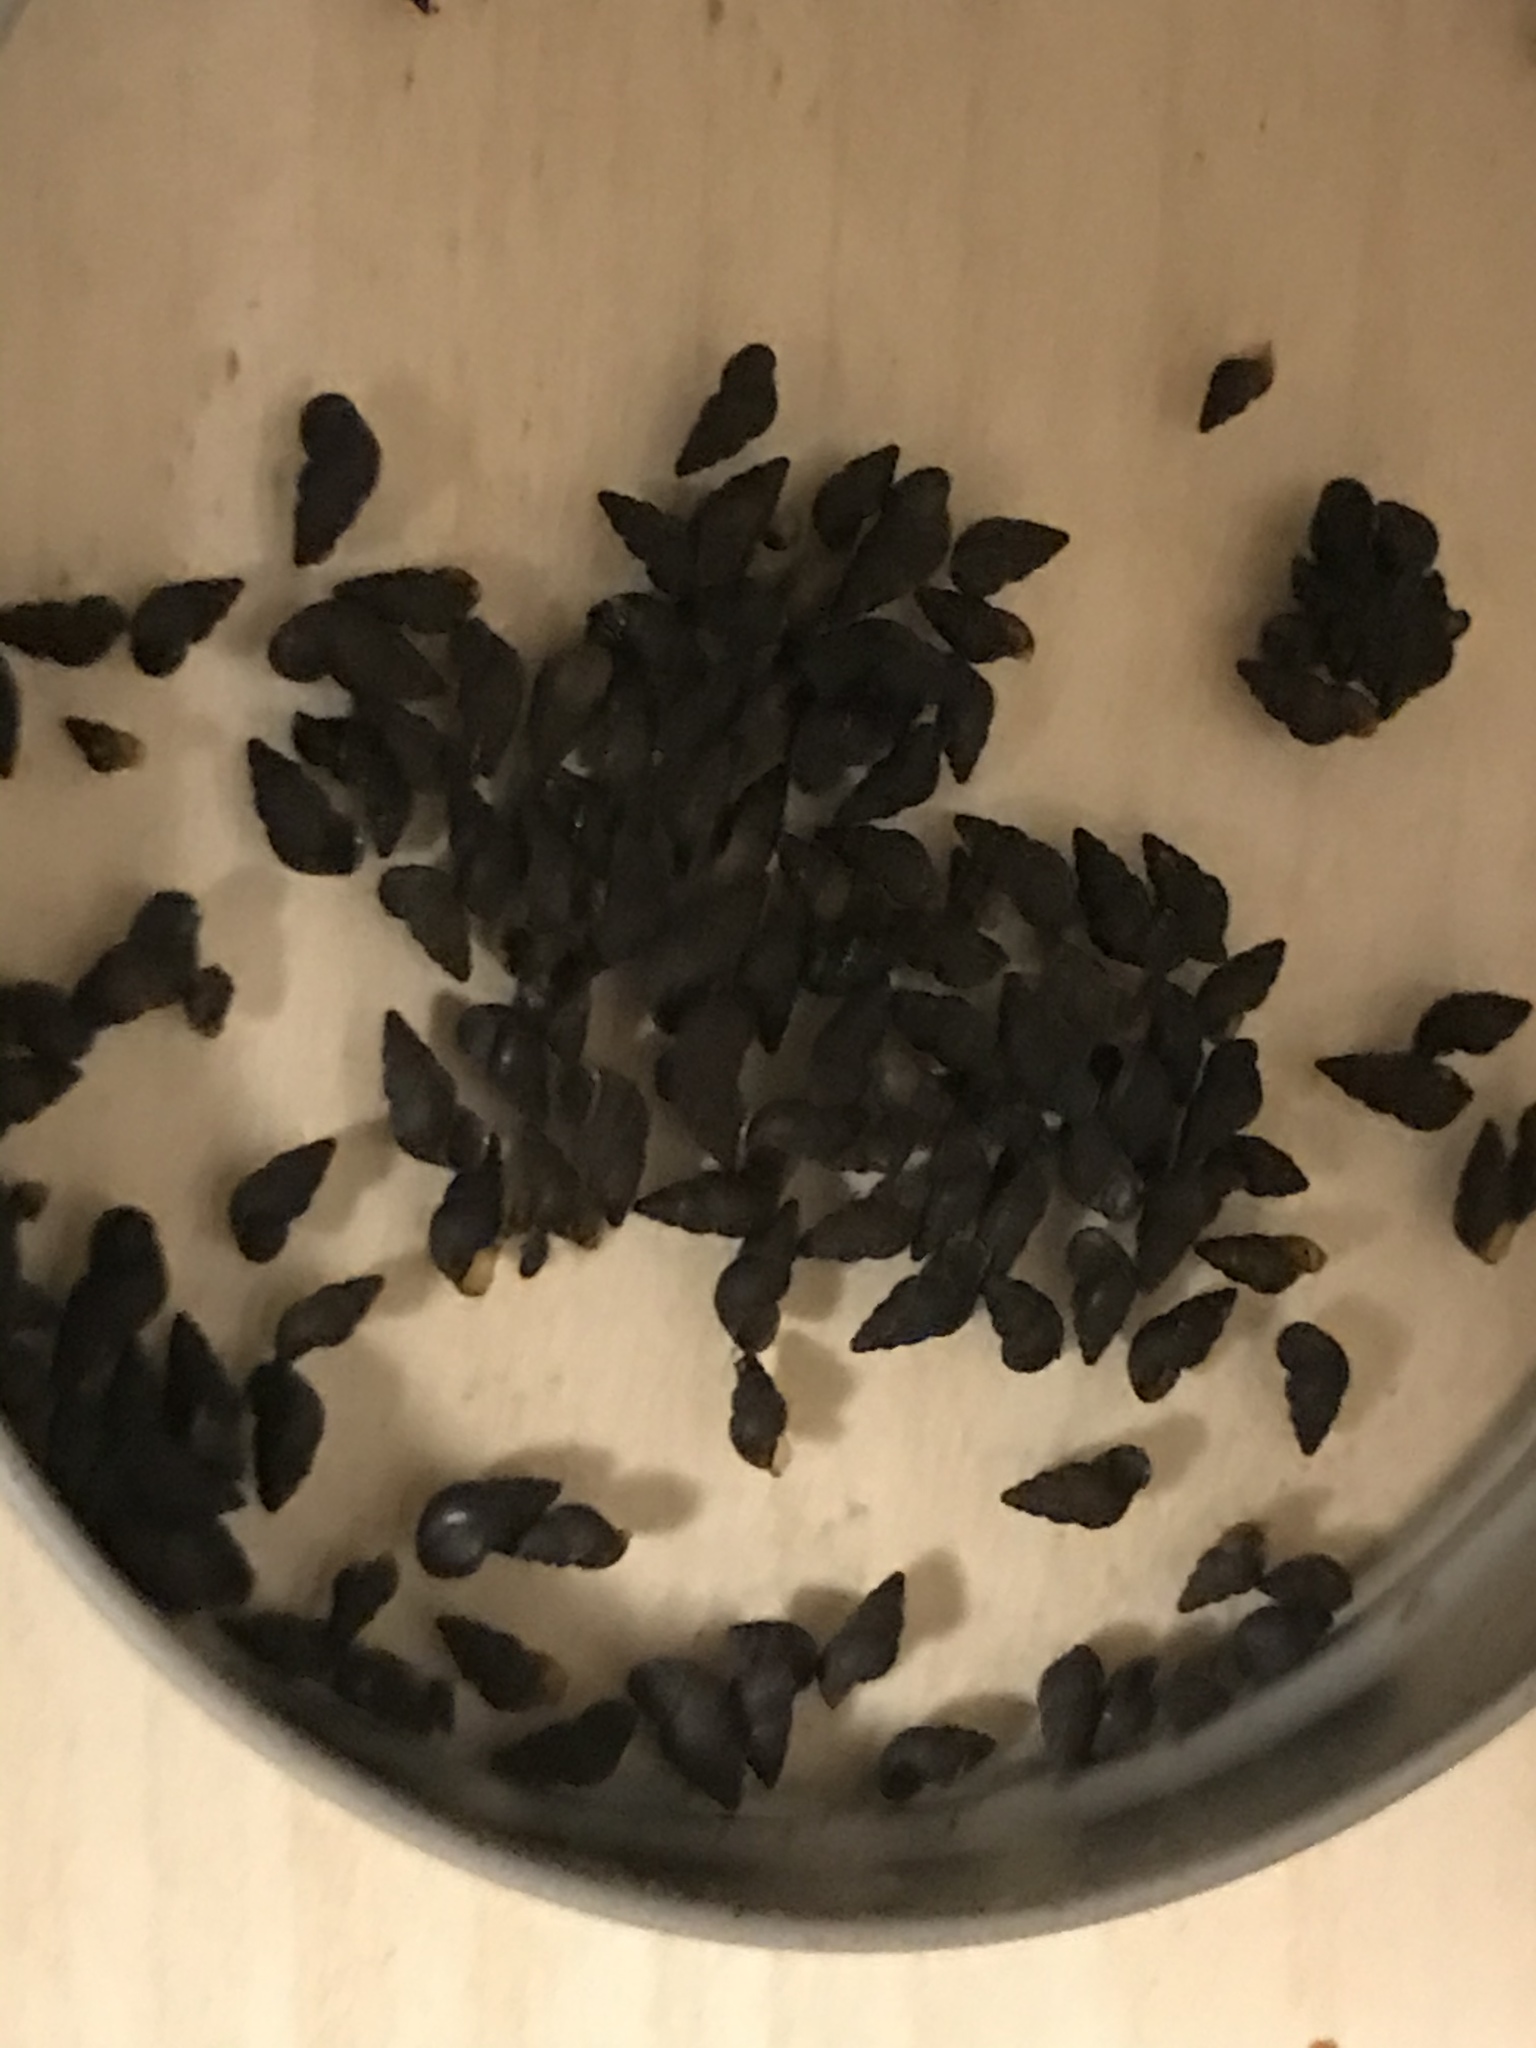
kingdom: Animalia
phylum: Mollusca
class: Gastropoda
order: Littorinimorpha
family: Tateidae
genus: Potamopyrgus
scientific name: Potamopyrgus antipodarum
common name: Jenkins' spire snail
